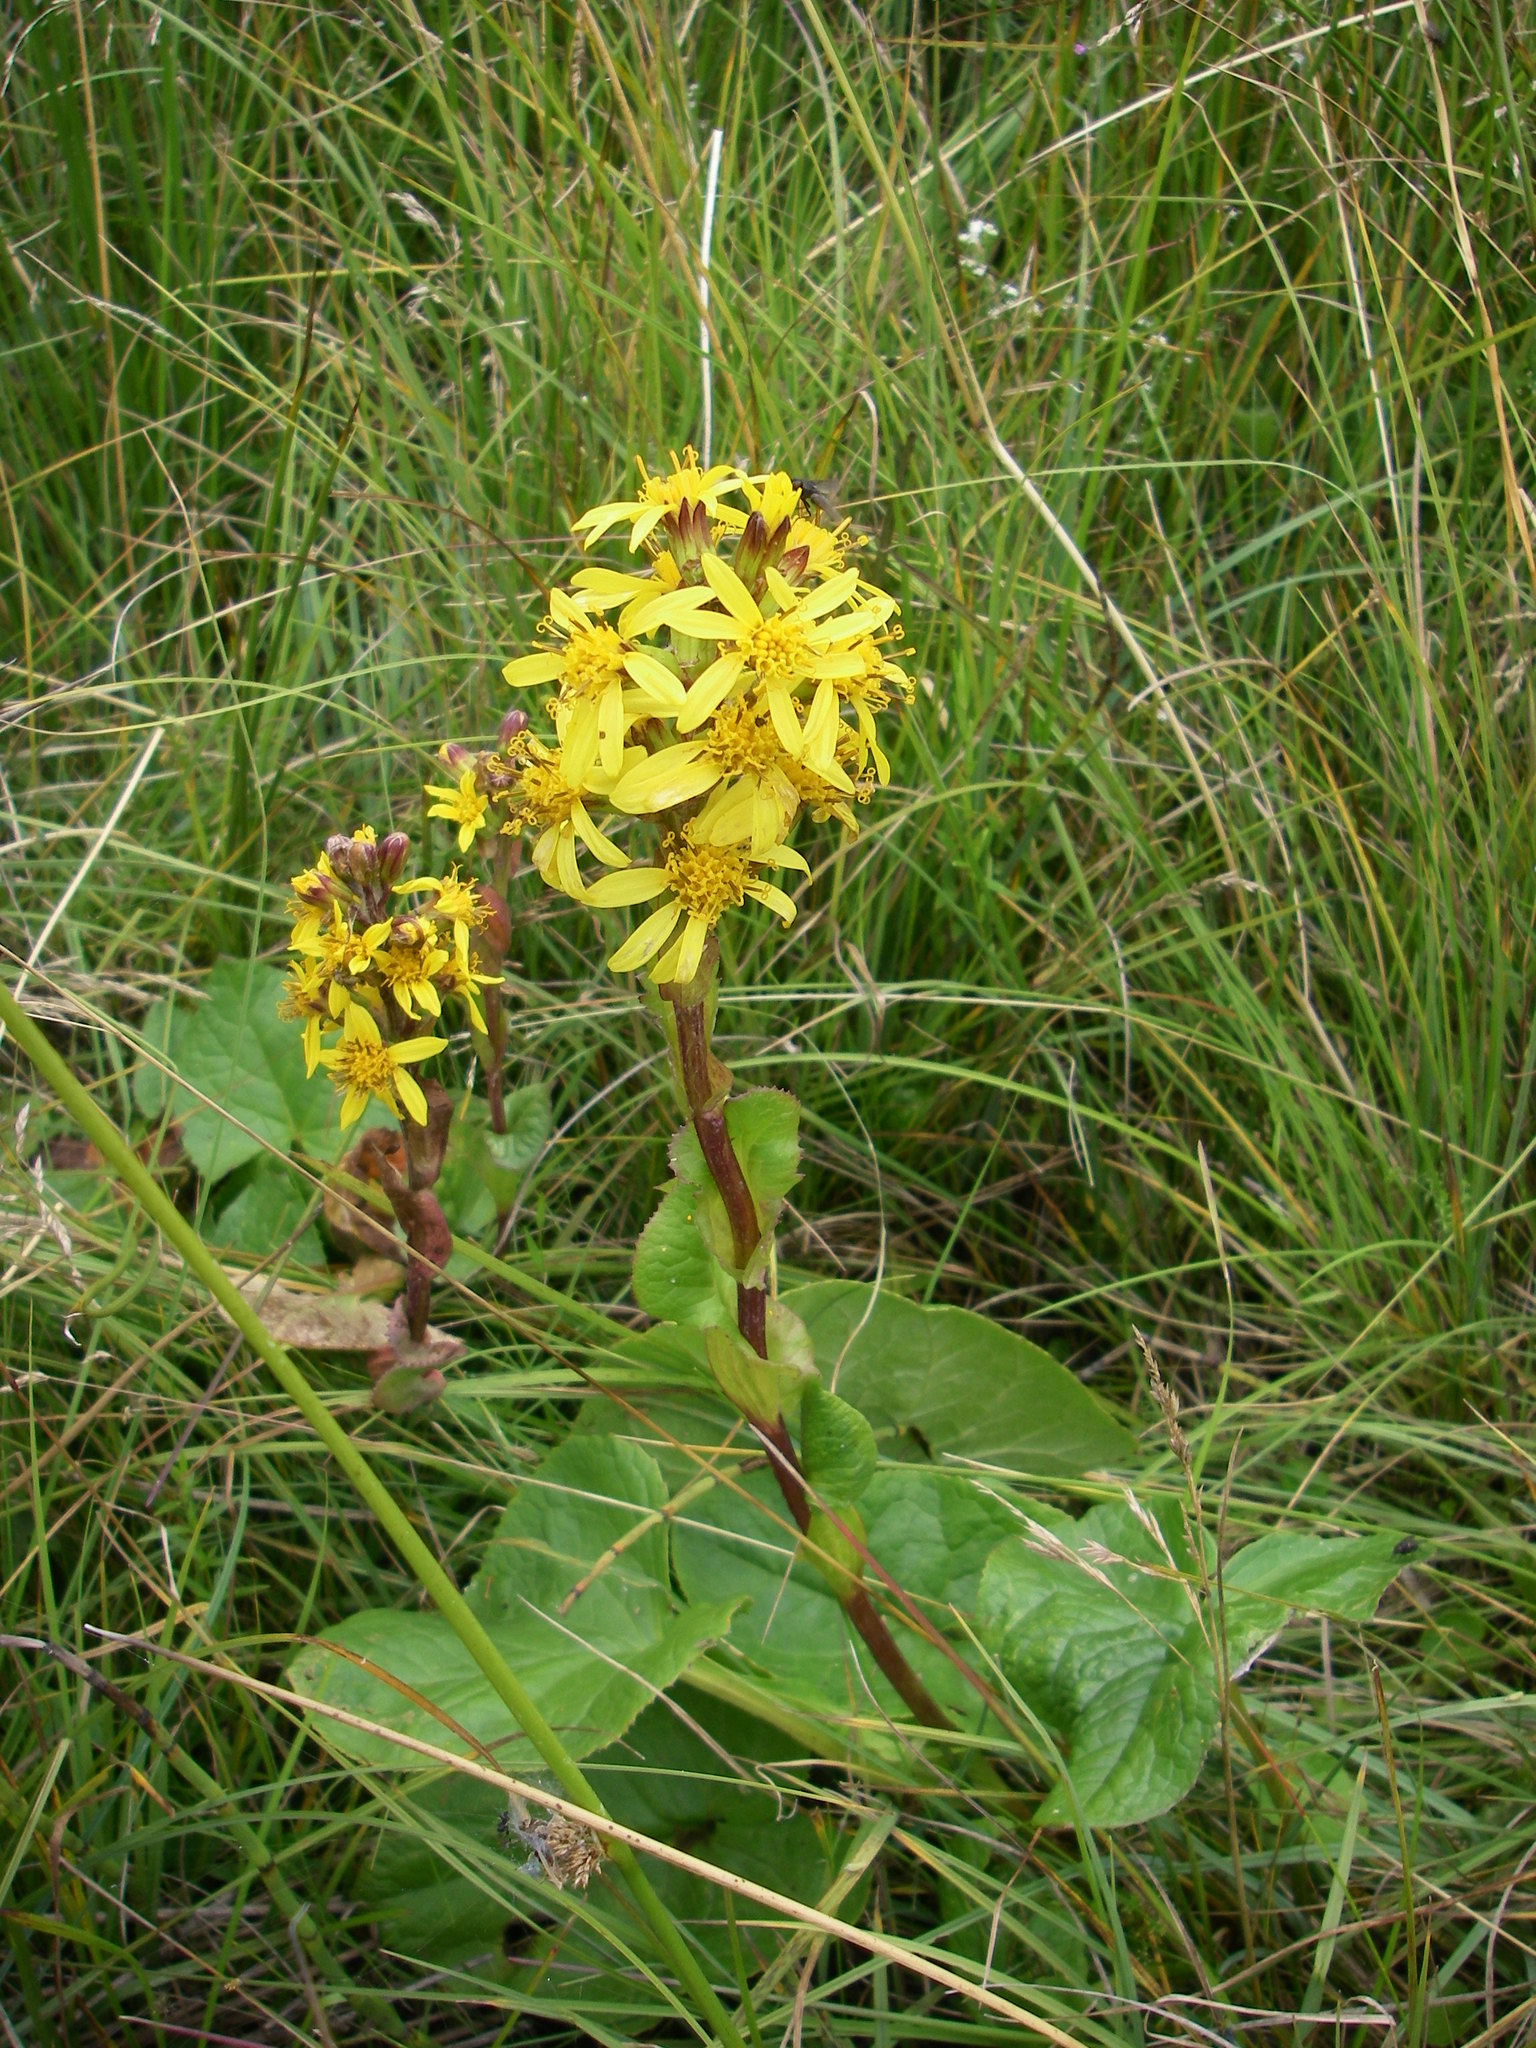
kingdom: Plantae
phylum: Tracheophyta
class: Magnoliopsida
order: Asterales
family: Asteraceae
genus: Ligularia
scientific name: Ligularia sibirica
